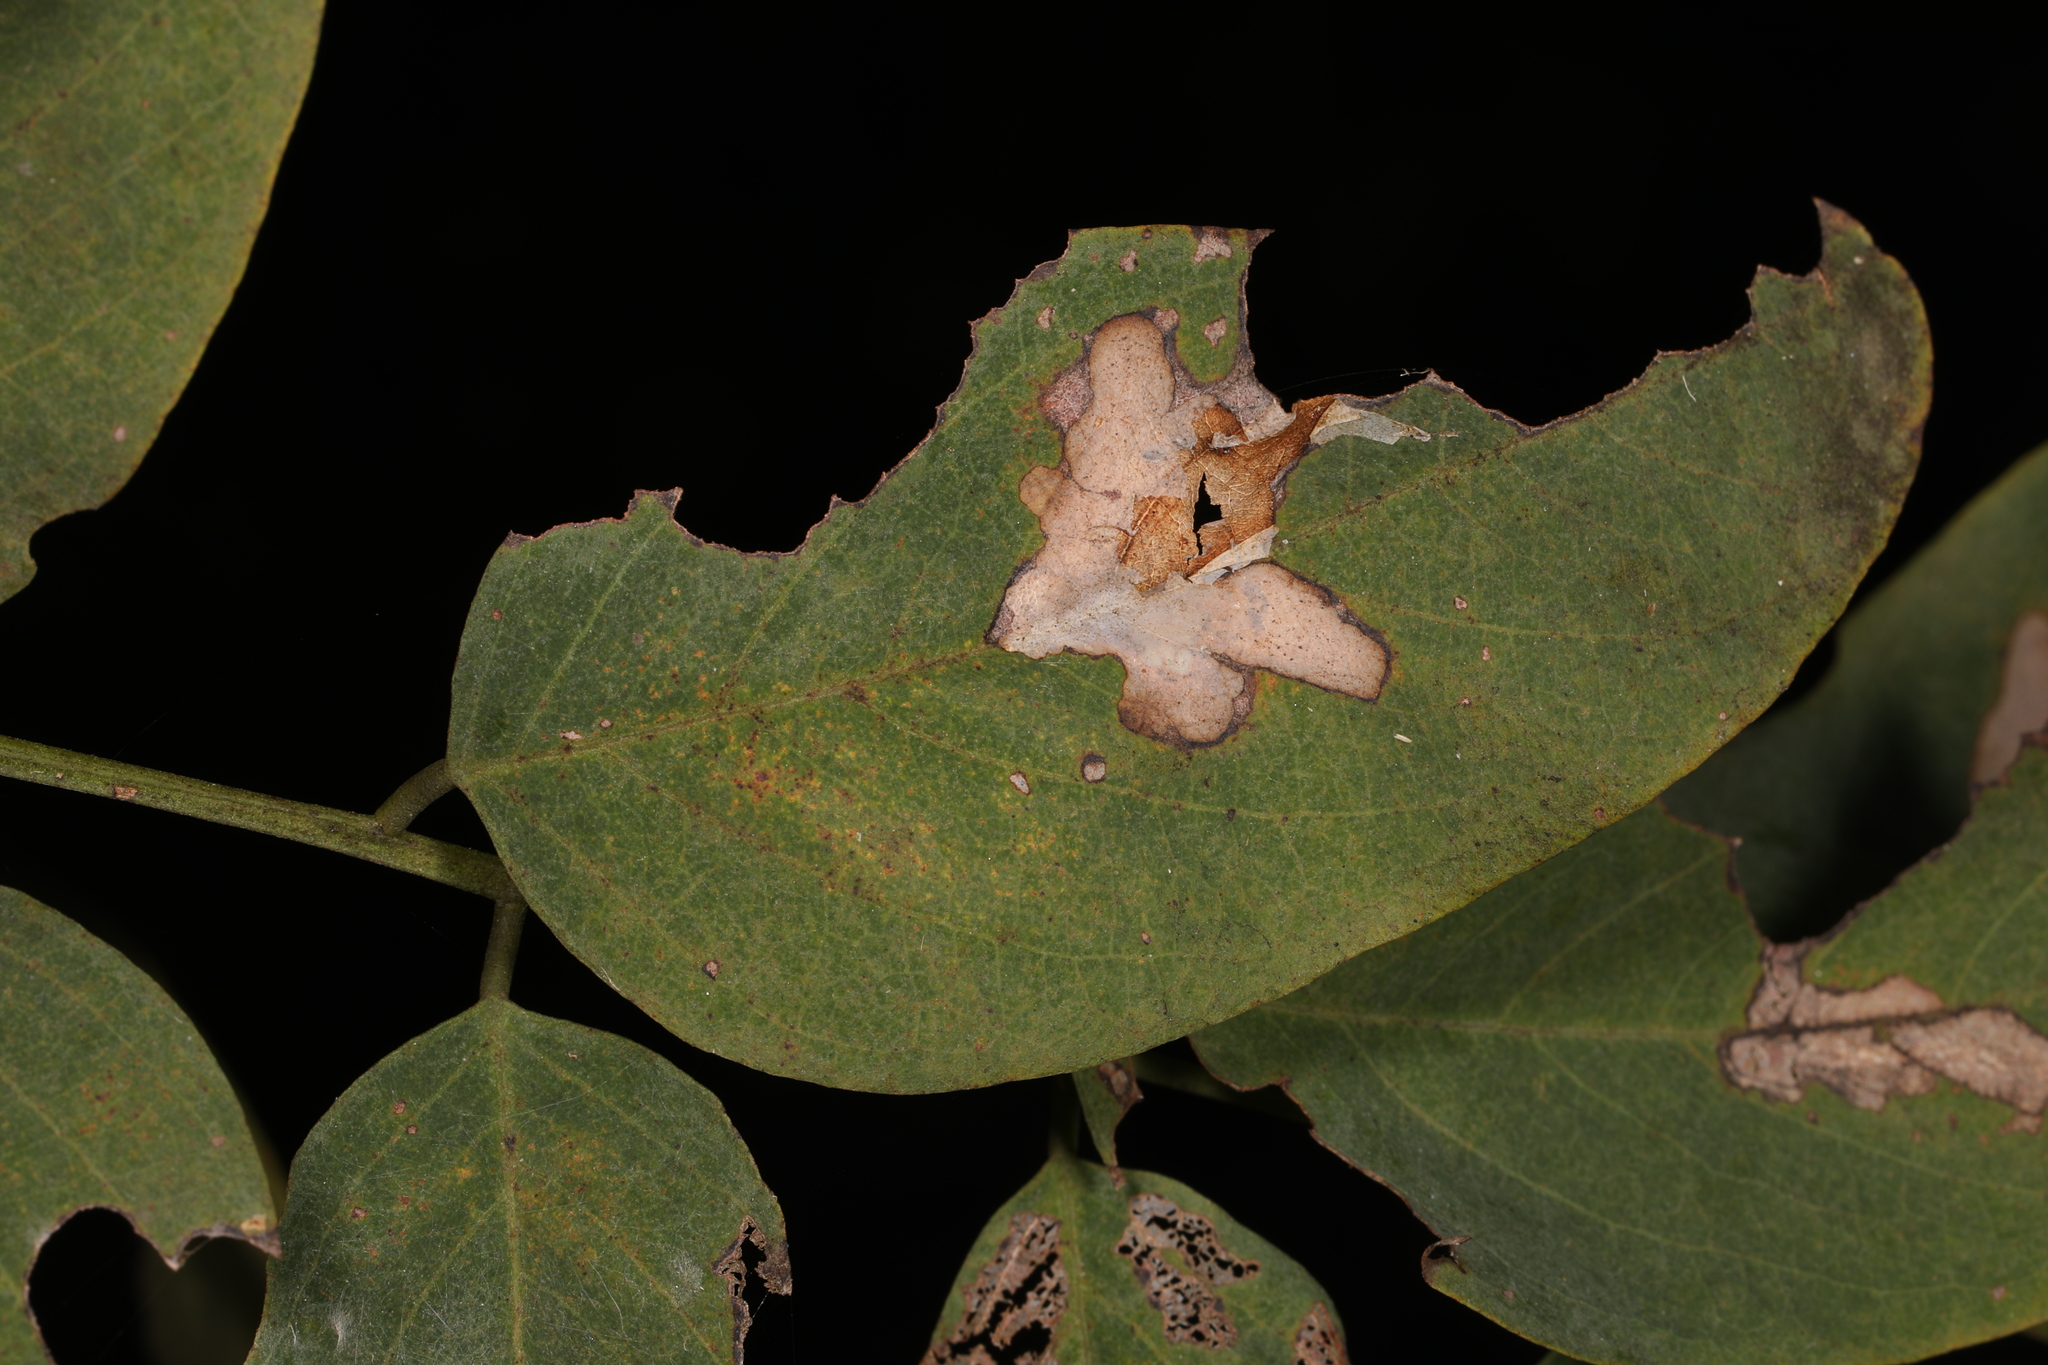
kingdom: Animalia
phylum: Arthropoda
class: Insecta
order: Lepidoptera
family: Gracillariidae
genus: Parectopa
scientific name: Parectopa robiniella
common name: Locust digitate leafminer
